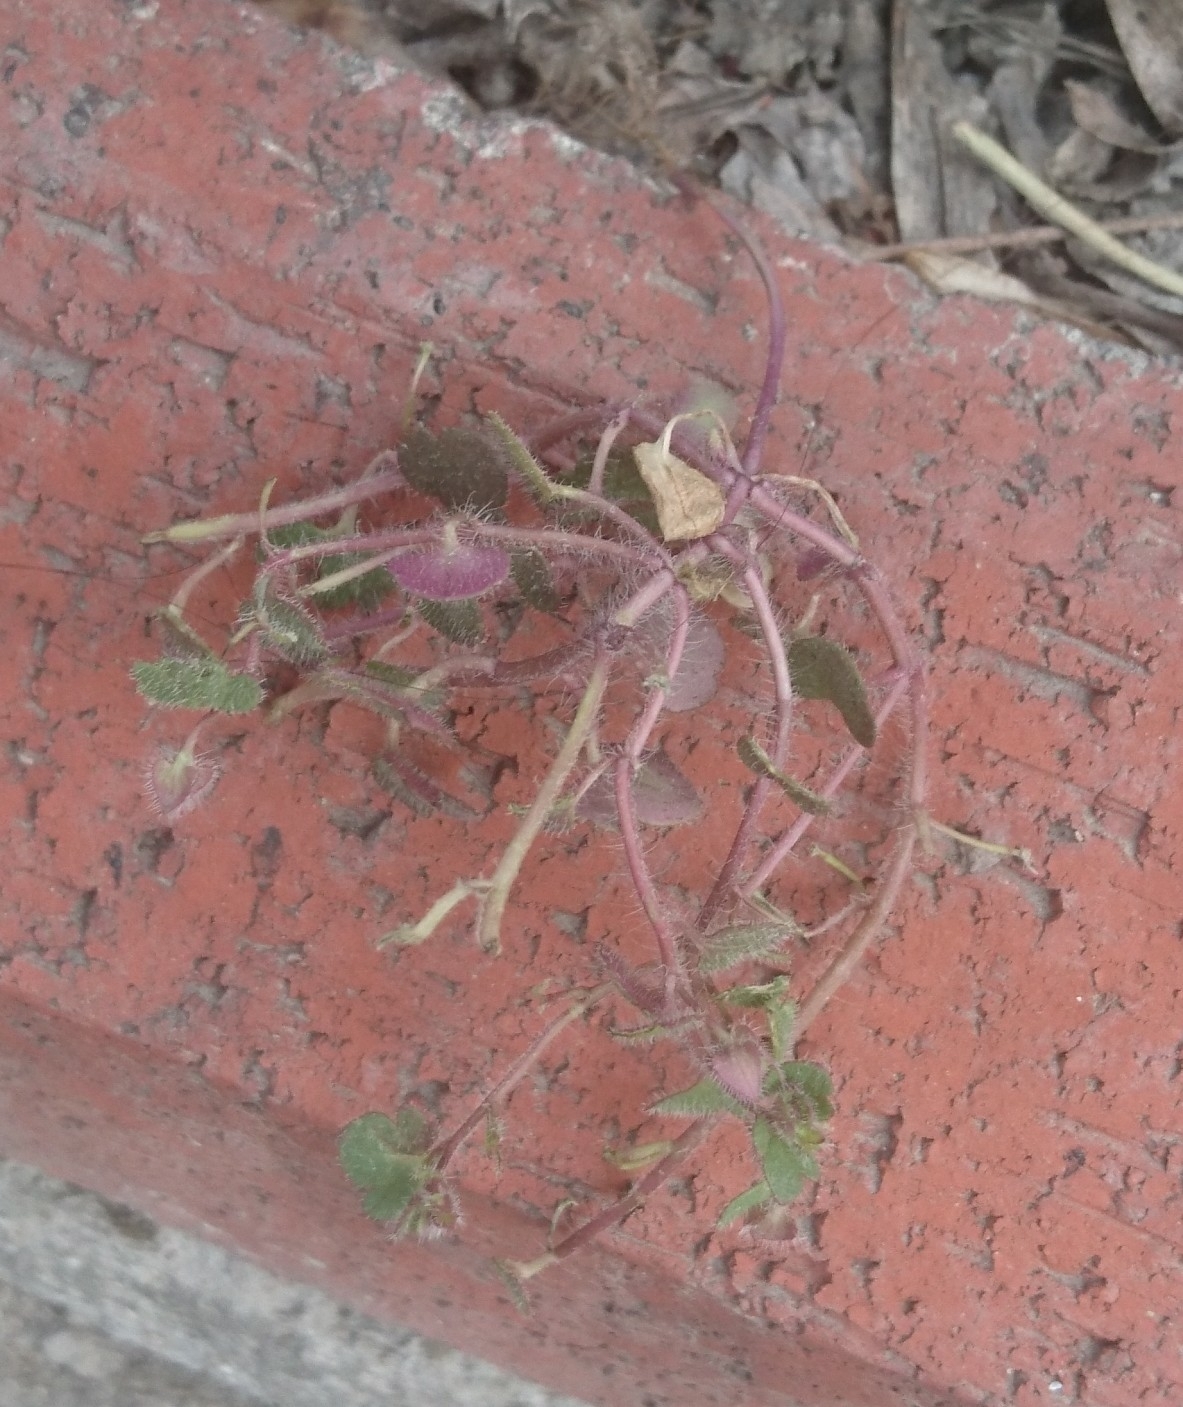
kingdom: Plantae
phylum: Tracheophyta
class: Magnoliopsida
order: Lamiales
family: Plantaginaceae
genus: Veronica
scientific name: Veronica hederifolia
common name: Ivy-leaved speedwell
